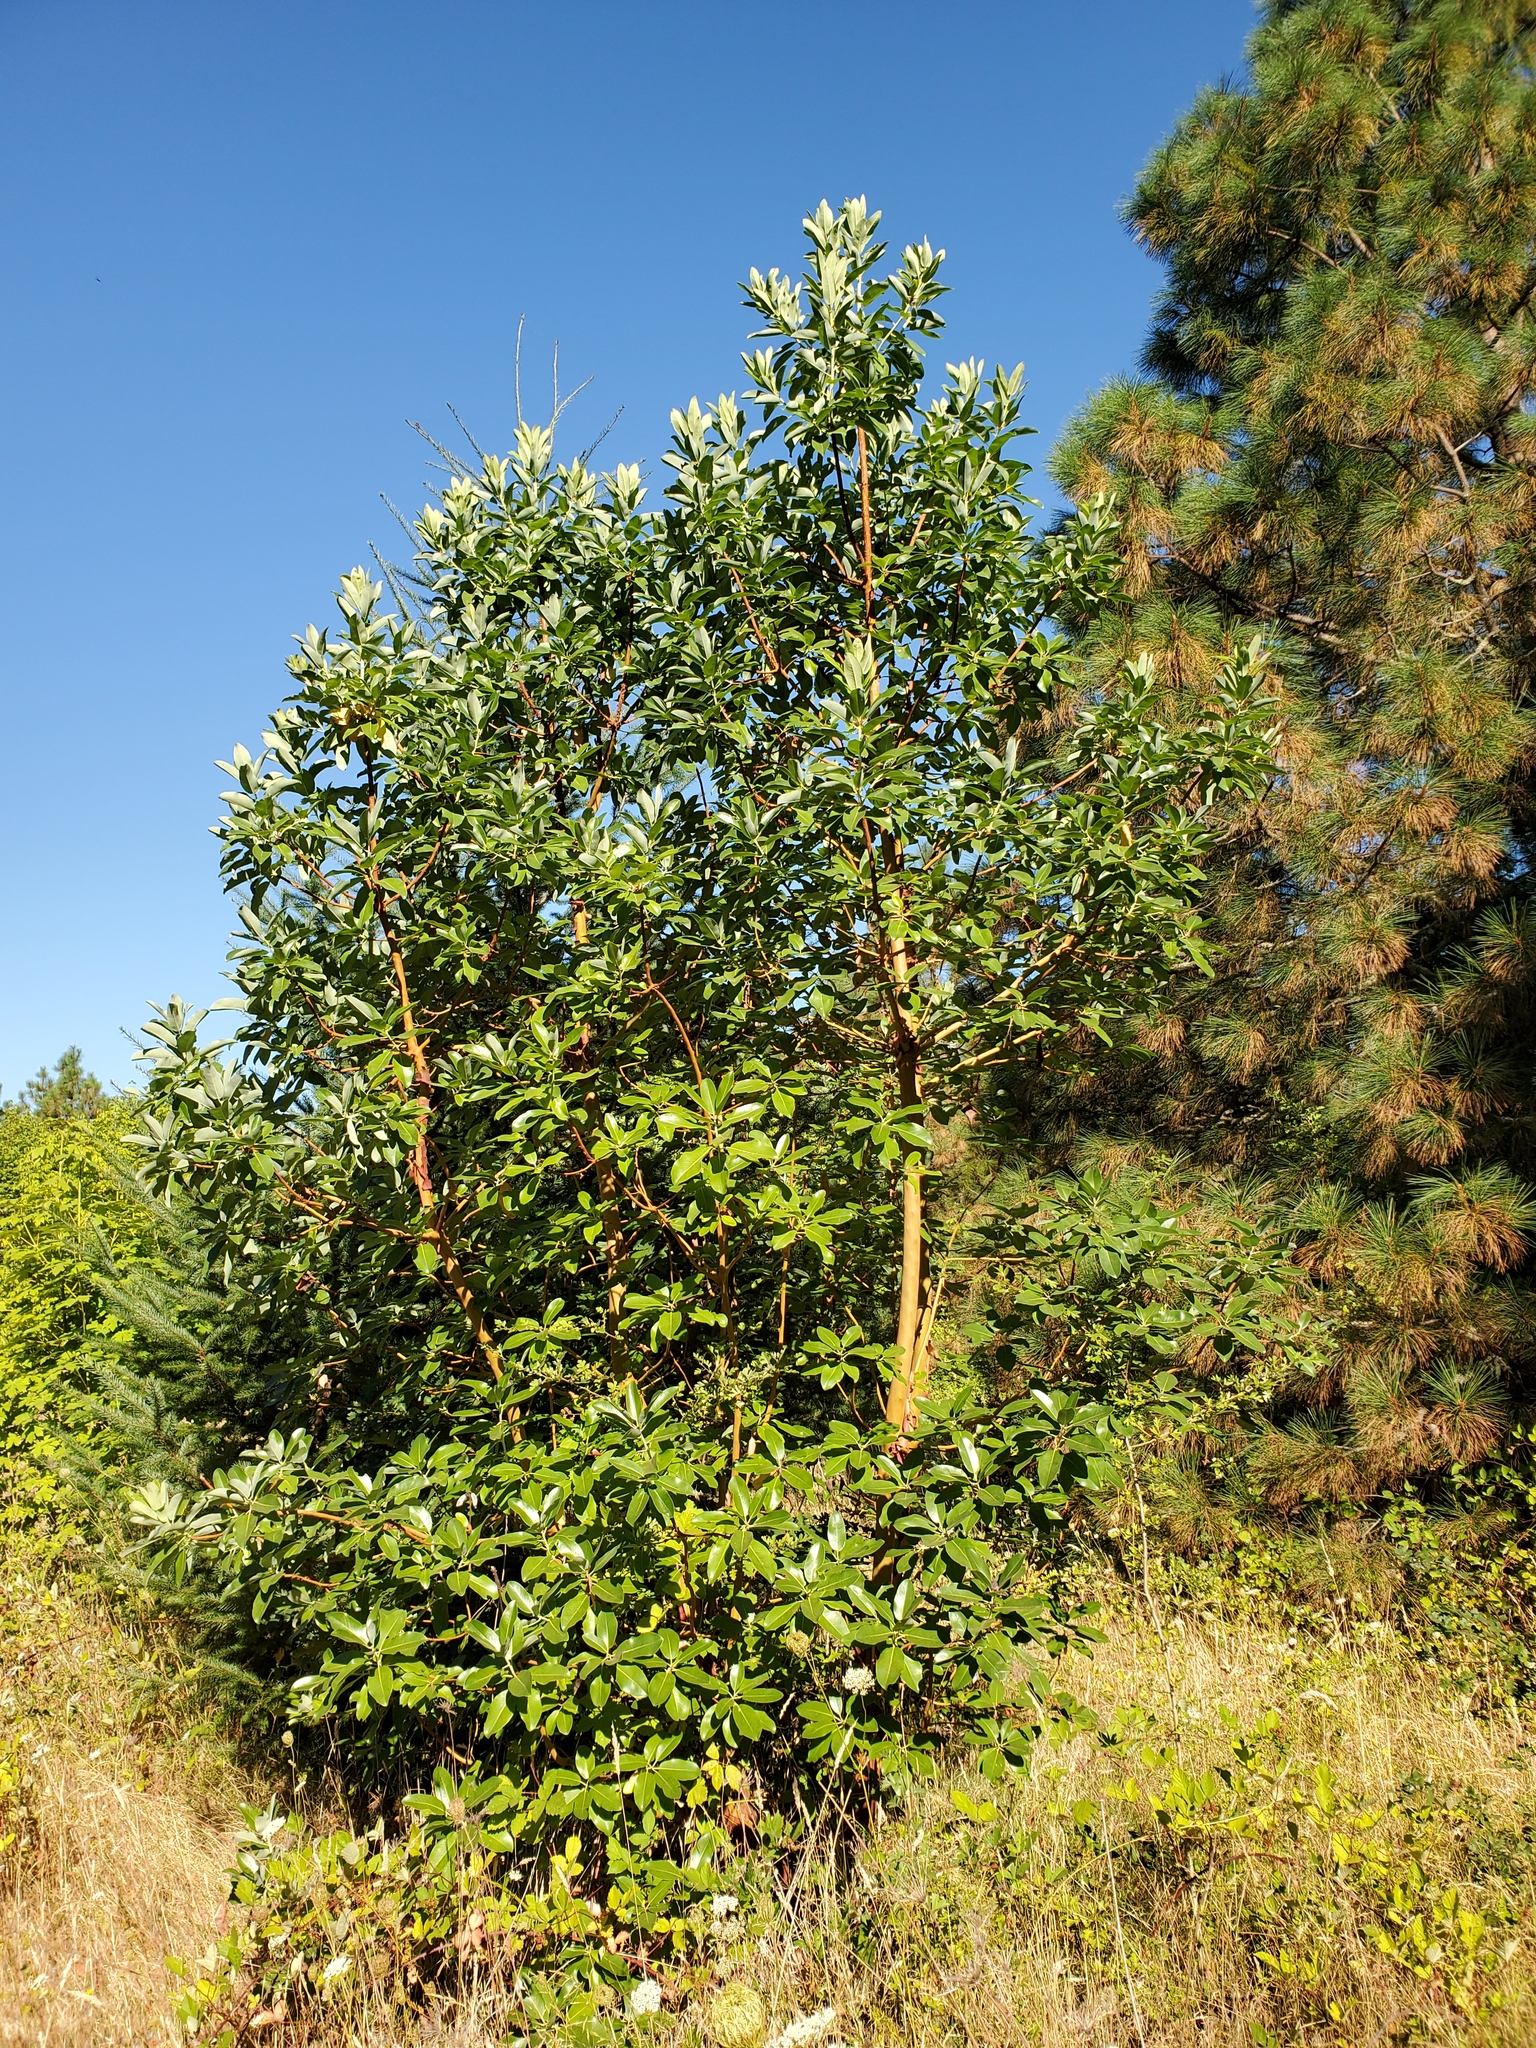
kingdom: Plantae
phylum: Tracheophyta
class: Magnoliopsida
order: Ericales
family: Ericaceae
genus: Arbutus
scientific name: Arbutus menziesii
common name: Pacific madrone
